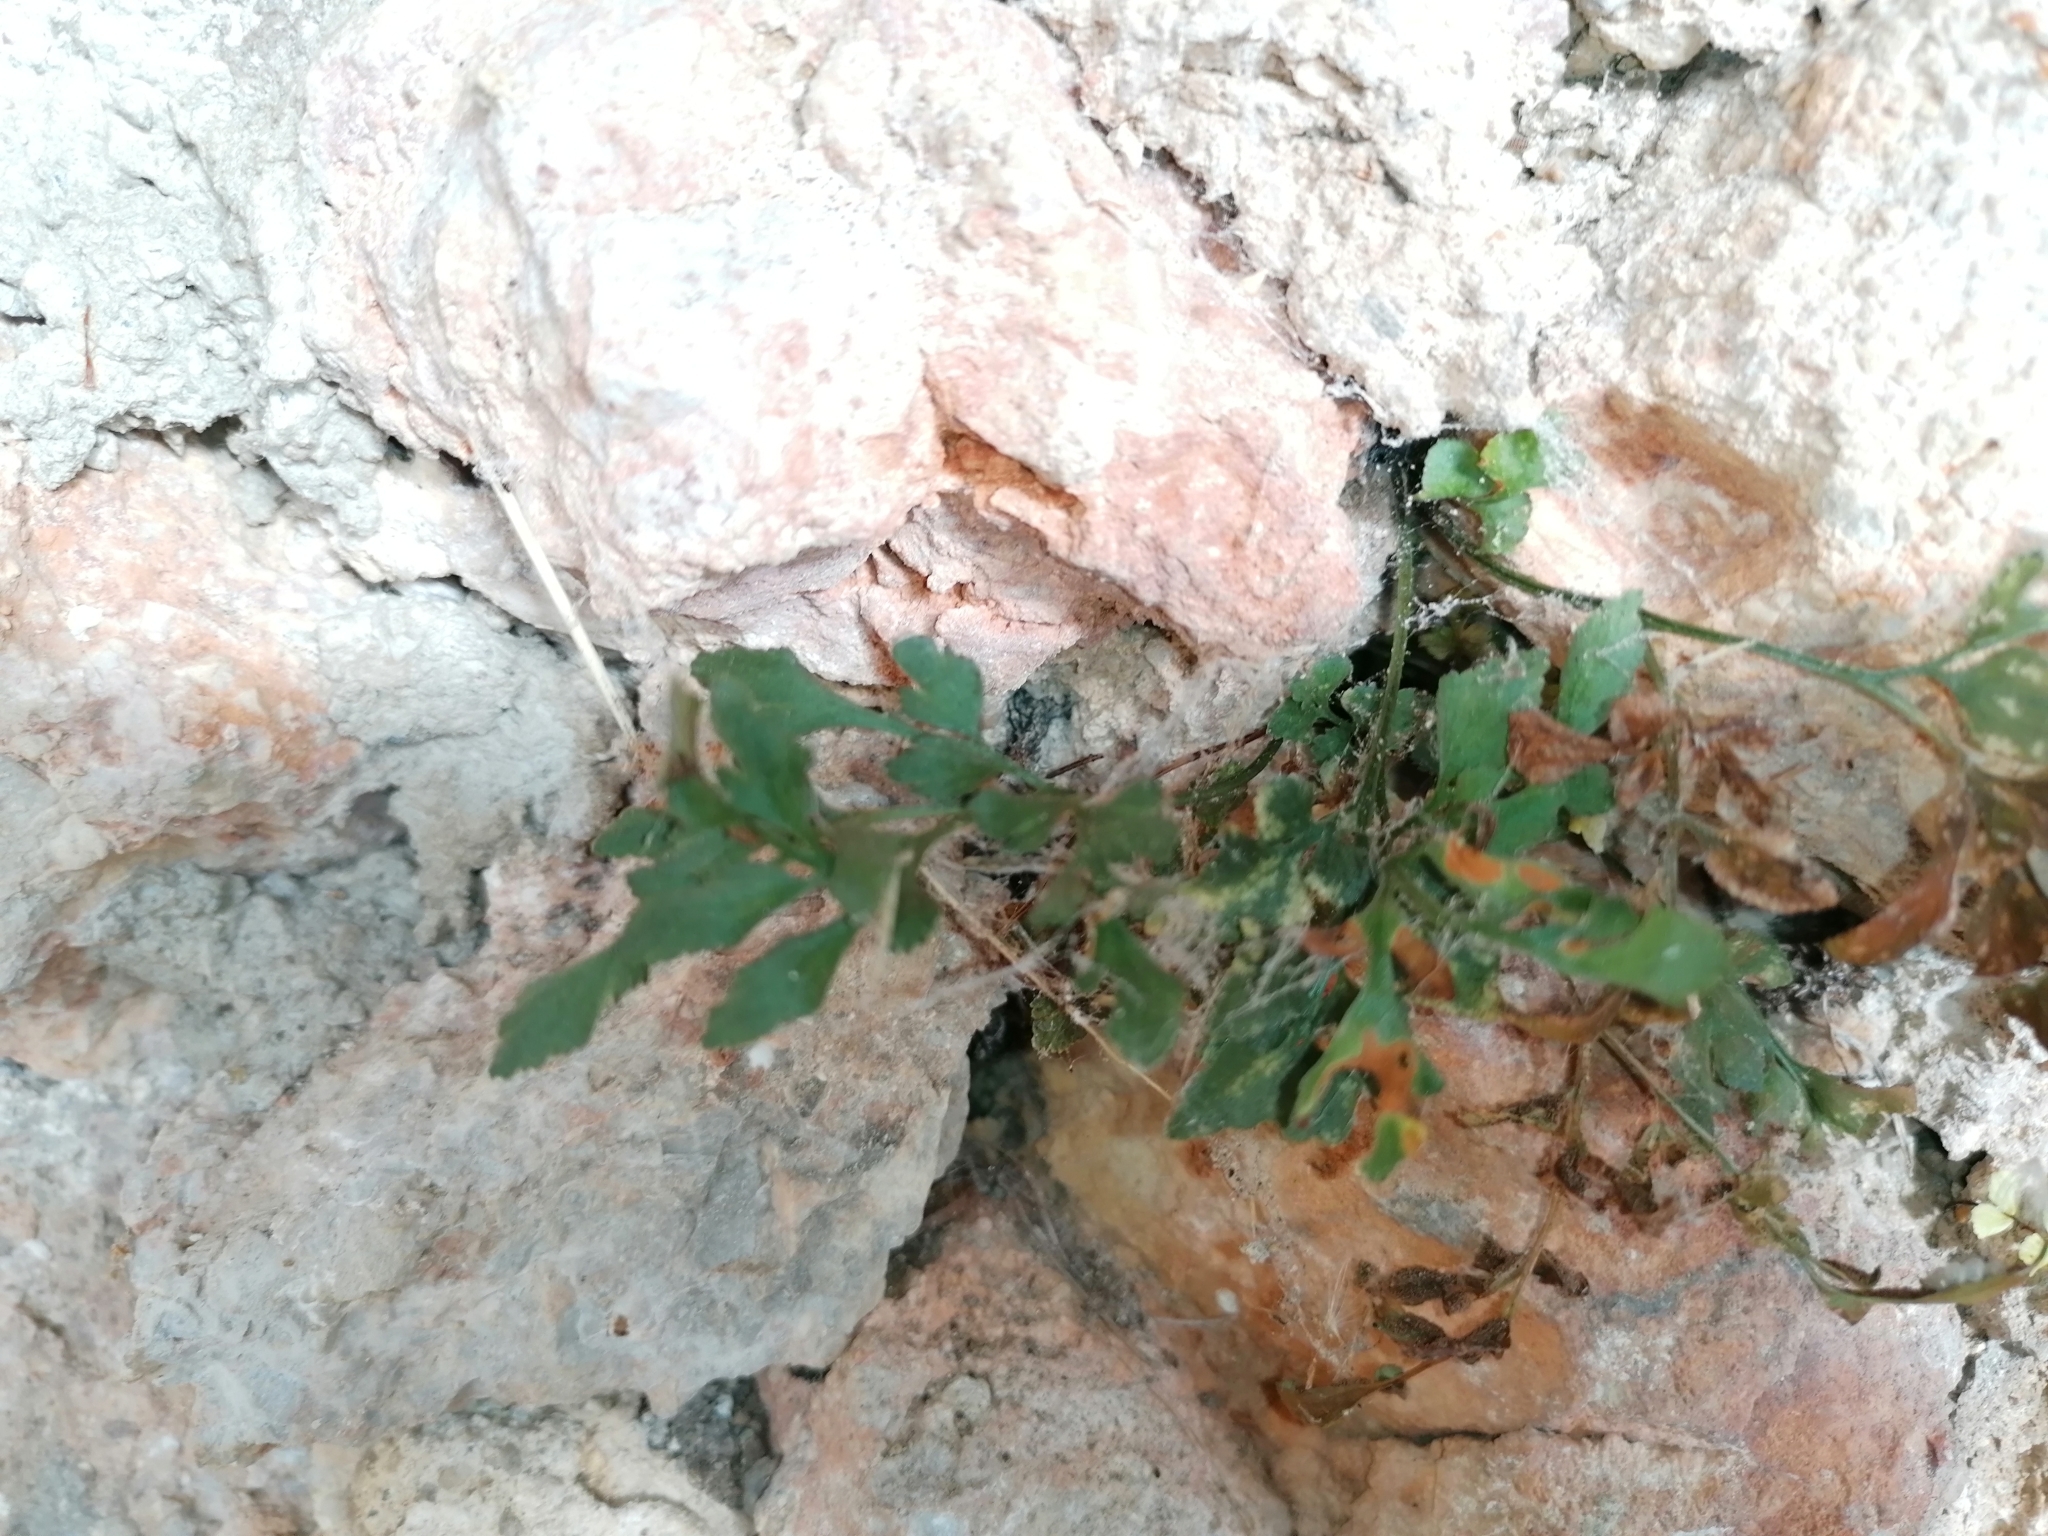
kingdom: Plantae
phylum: Tracheophyta
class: Polypodiopsida
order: Polypodiales
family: Aspleniaceae
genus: Asplenium
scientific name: Asplenium ruta-muraria
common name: Wall-rue
